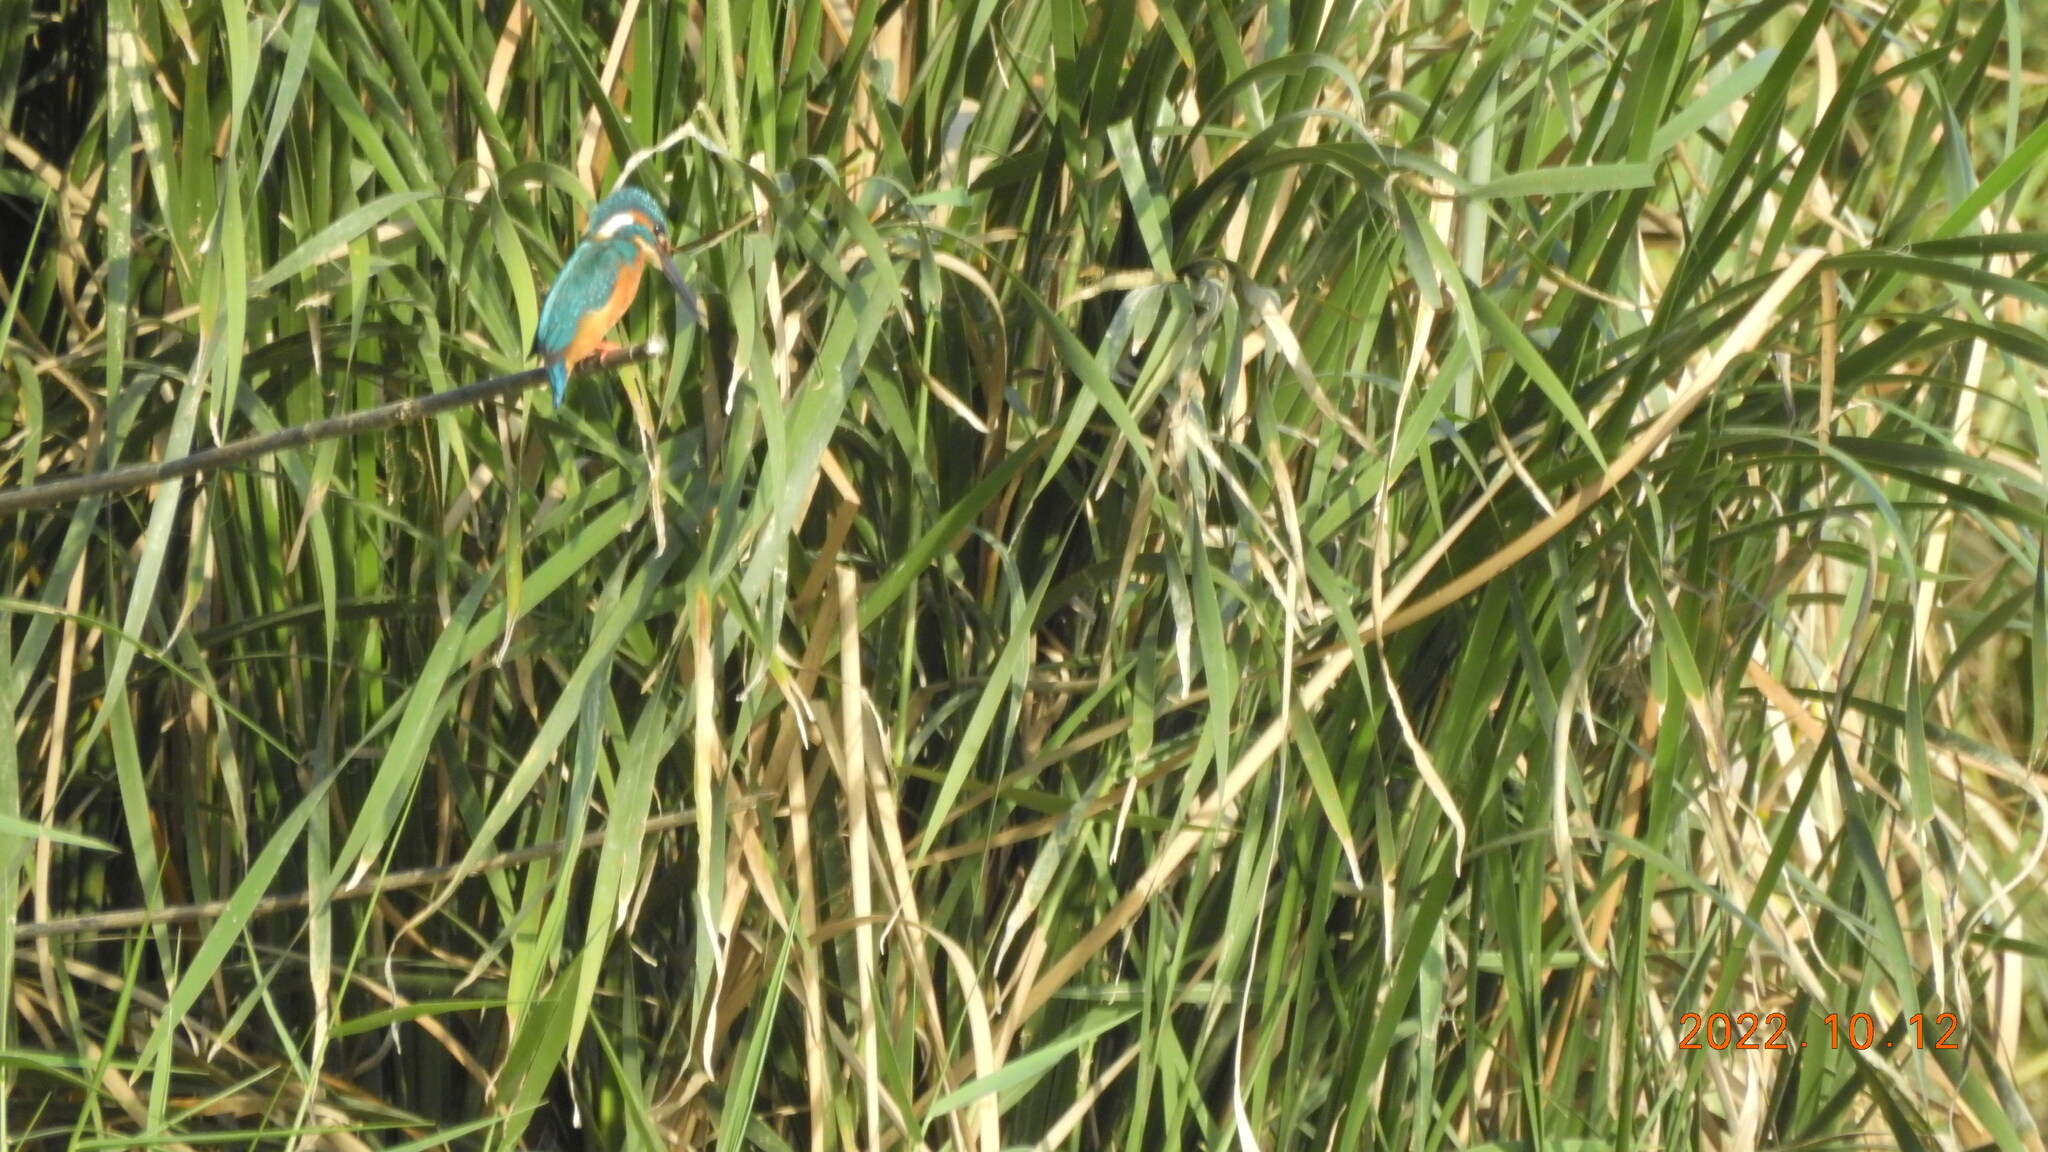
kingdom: Animalia
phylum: Chordata
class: Aves
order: Coraciiformes
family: Alcedinidae
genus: Alcedo
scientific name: Alcedo atthis
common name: Common kingfisher
